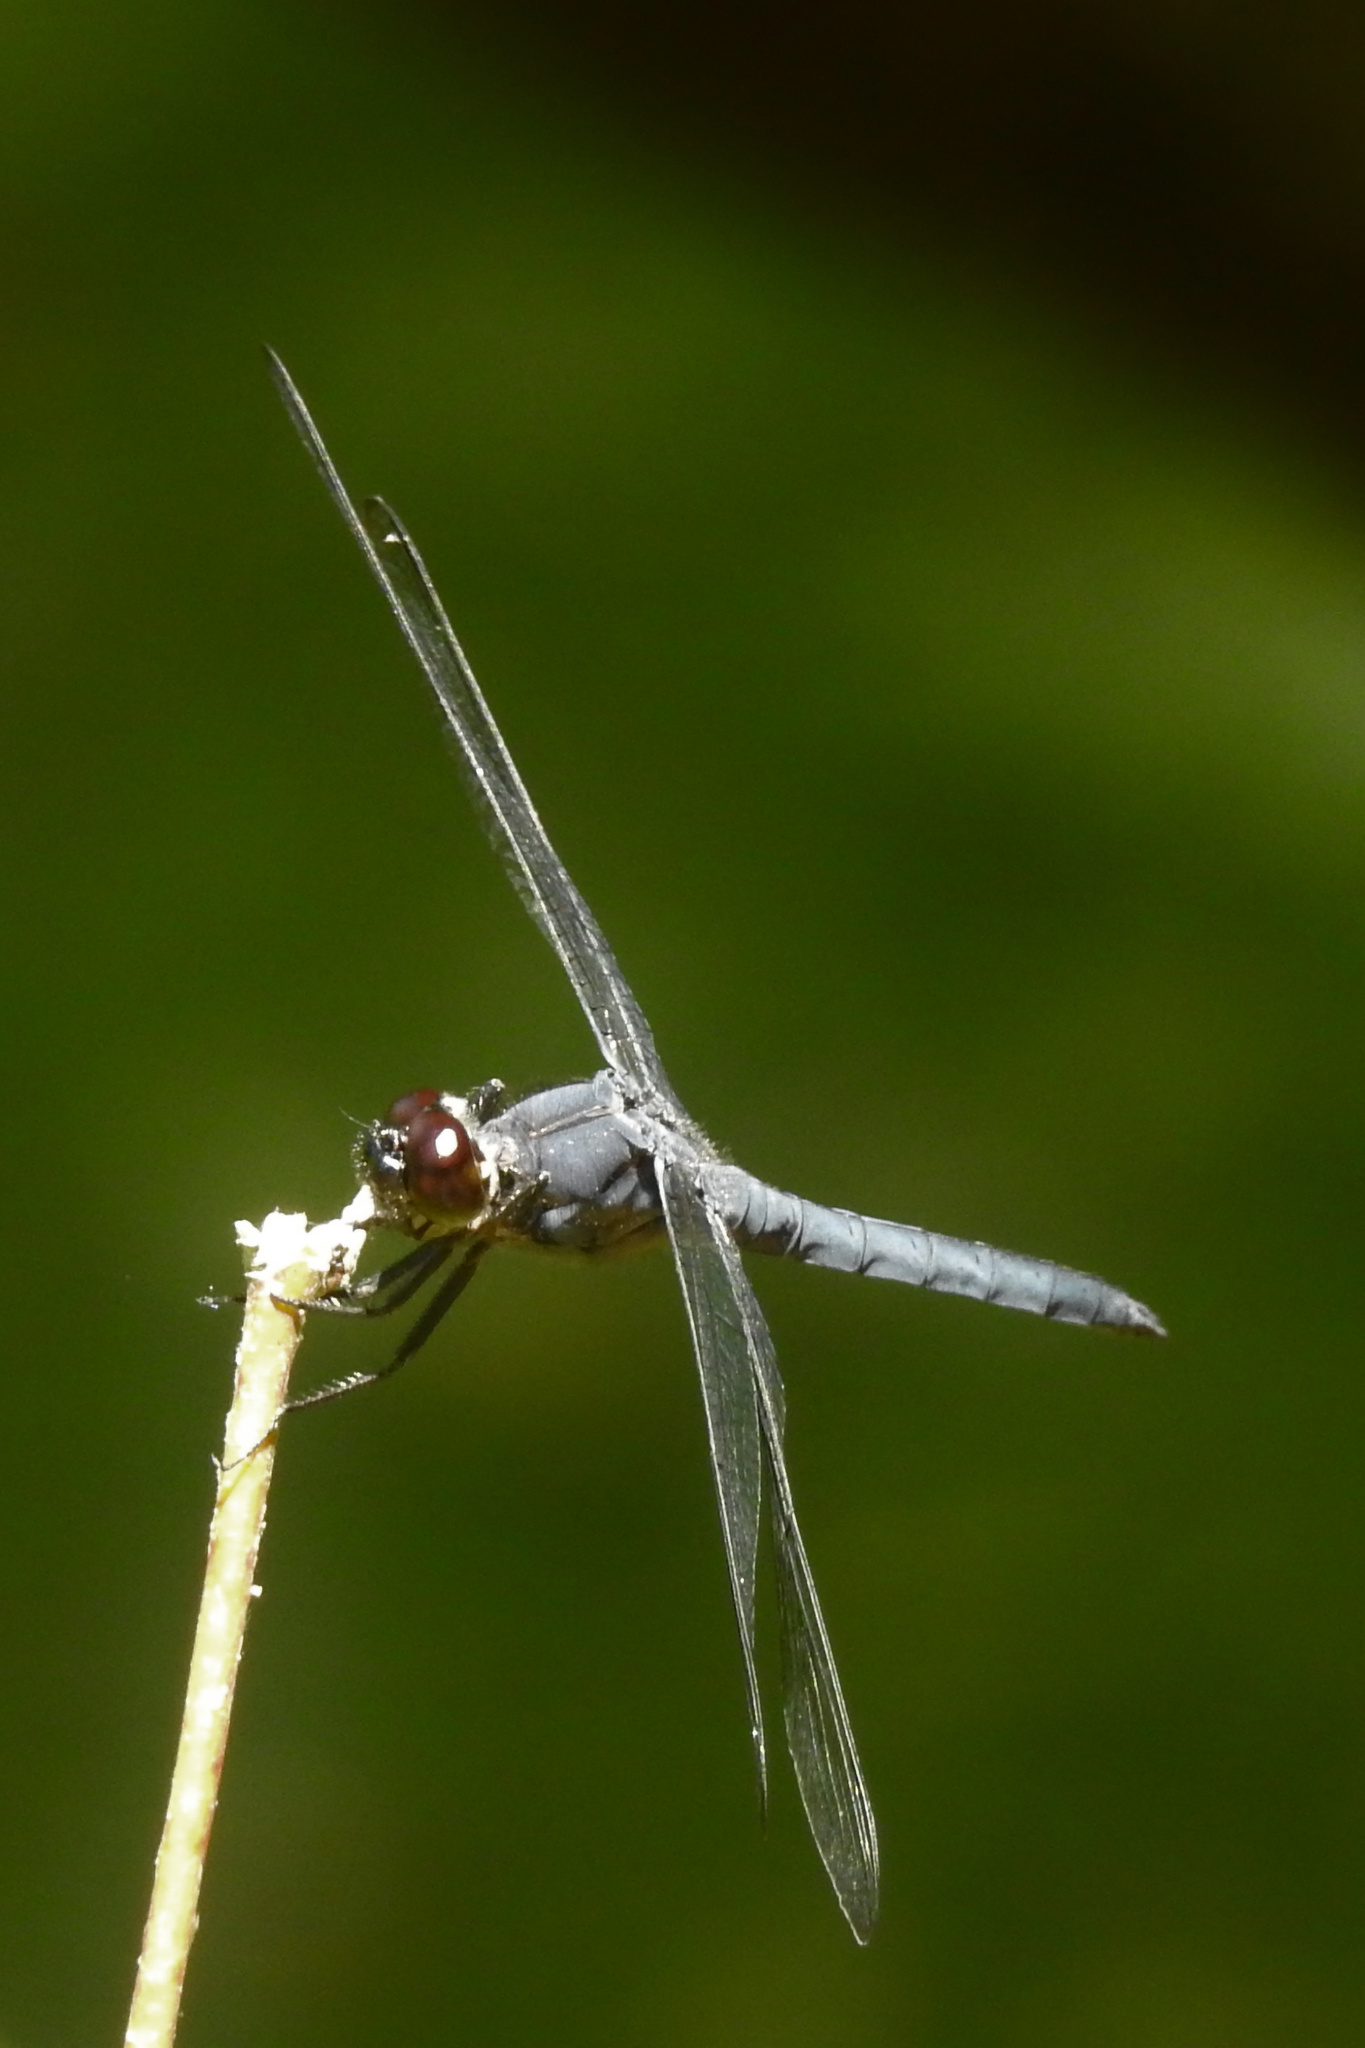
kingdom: Animalia
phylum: Arthropoda
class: Insecta
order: Odonata
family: Libellulidae
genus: Libellula
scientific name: Libellula incesta
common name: Slaty skimmer
